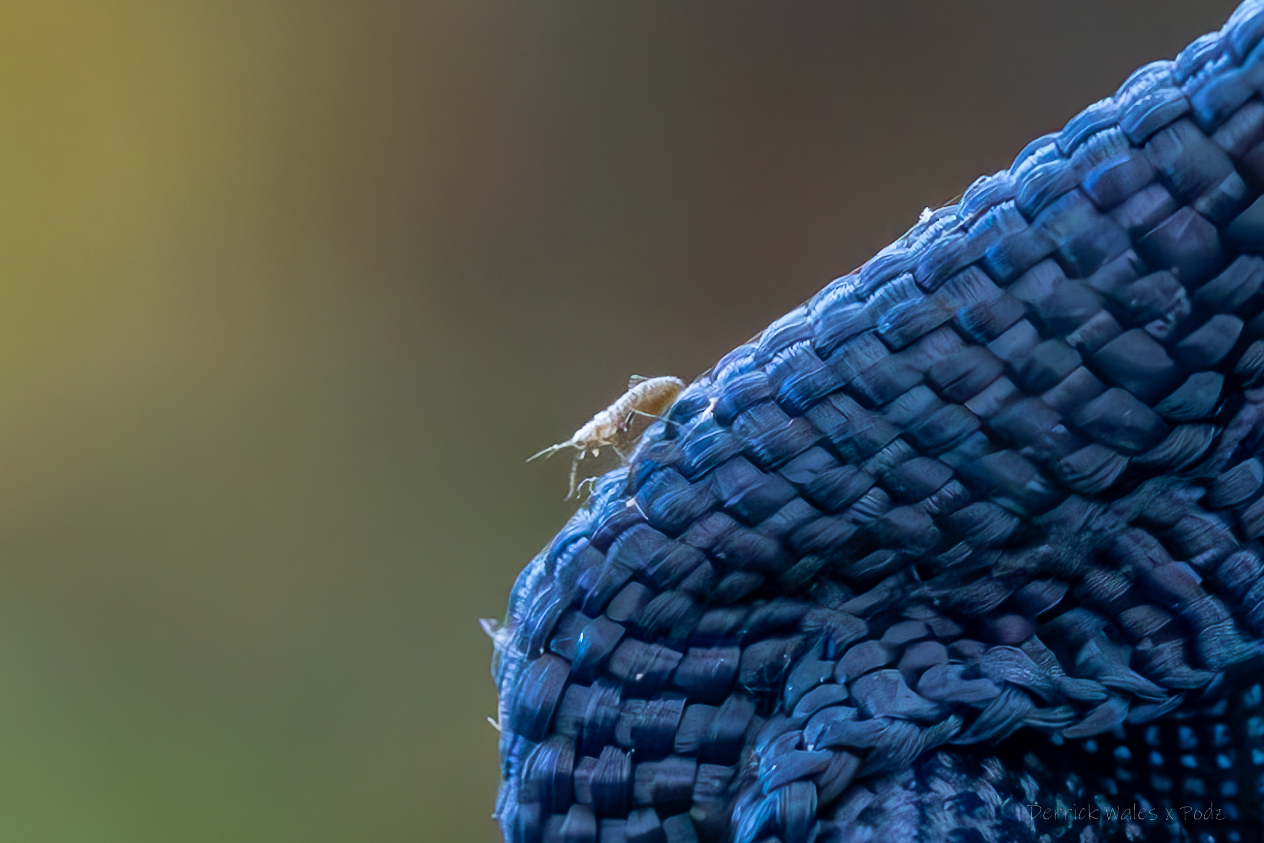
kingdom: Animalia
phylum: Arthropoda
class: Insecta
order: Hemiptera
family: Aphididae
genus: Eulachnus
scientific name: Eulachnus rileyi
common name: Active gray pine needle aphid
